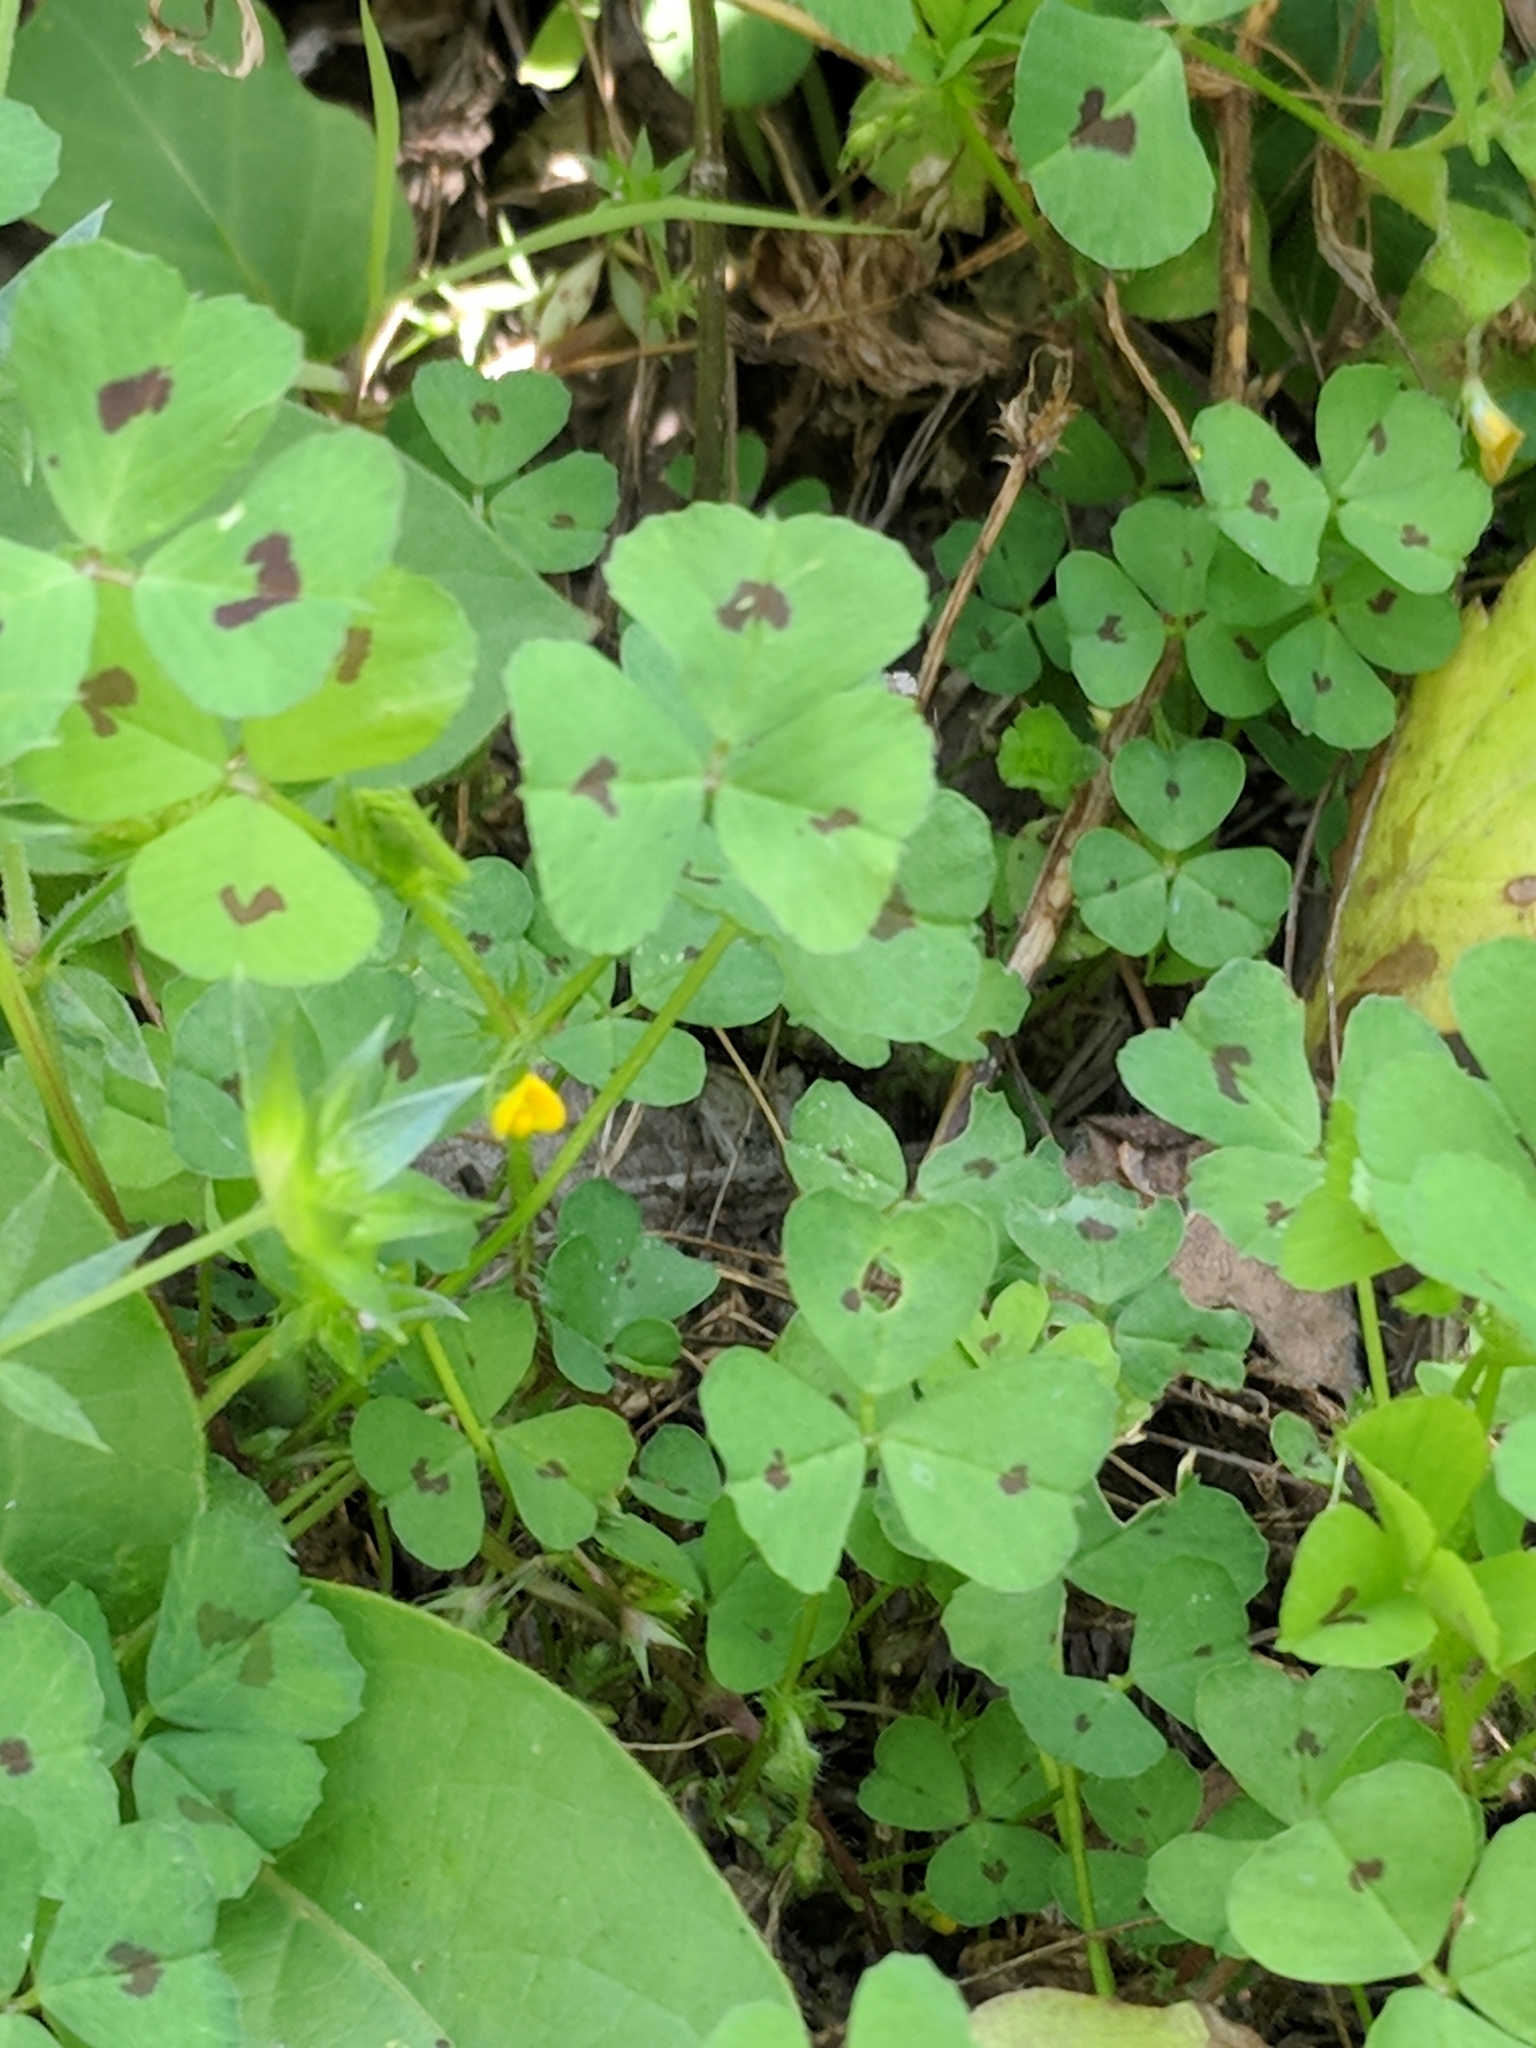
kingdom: Plantae
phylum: Tracheophyta
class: Magnoliopsida
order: Fabales
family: Fabaceae
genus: Medicago
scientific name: Medicago arabica
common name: Spotted medick
